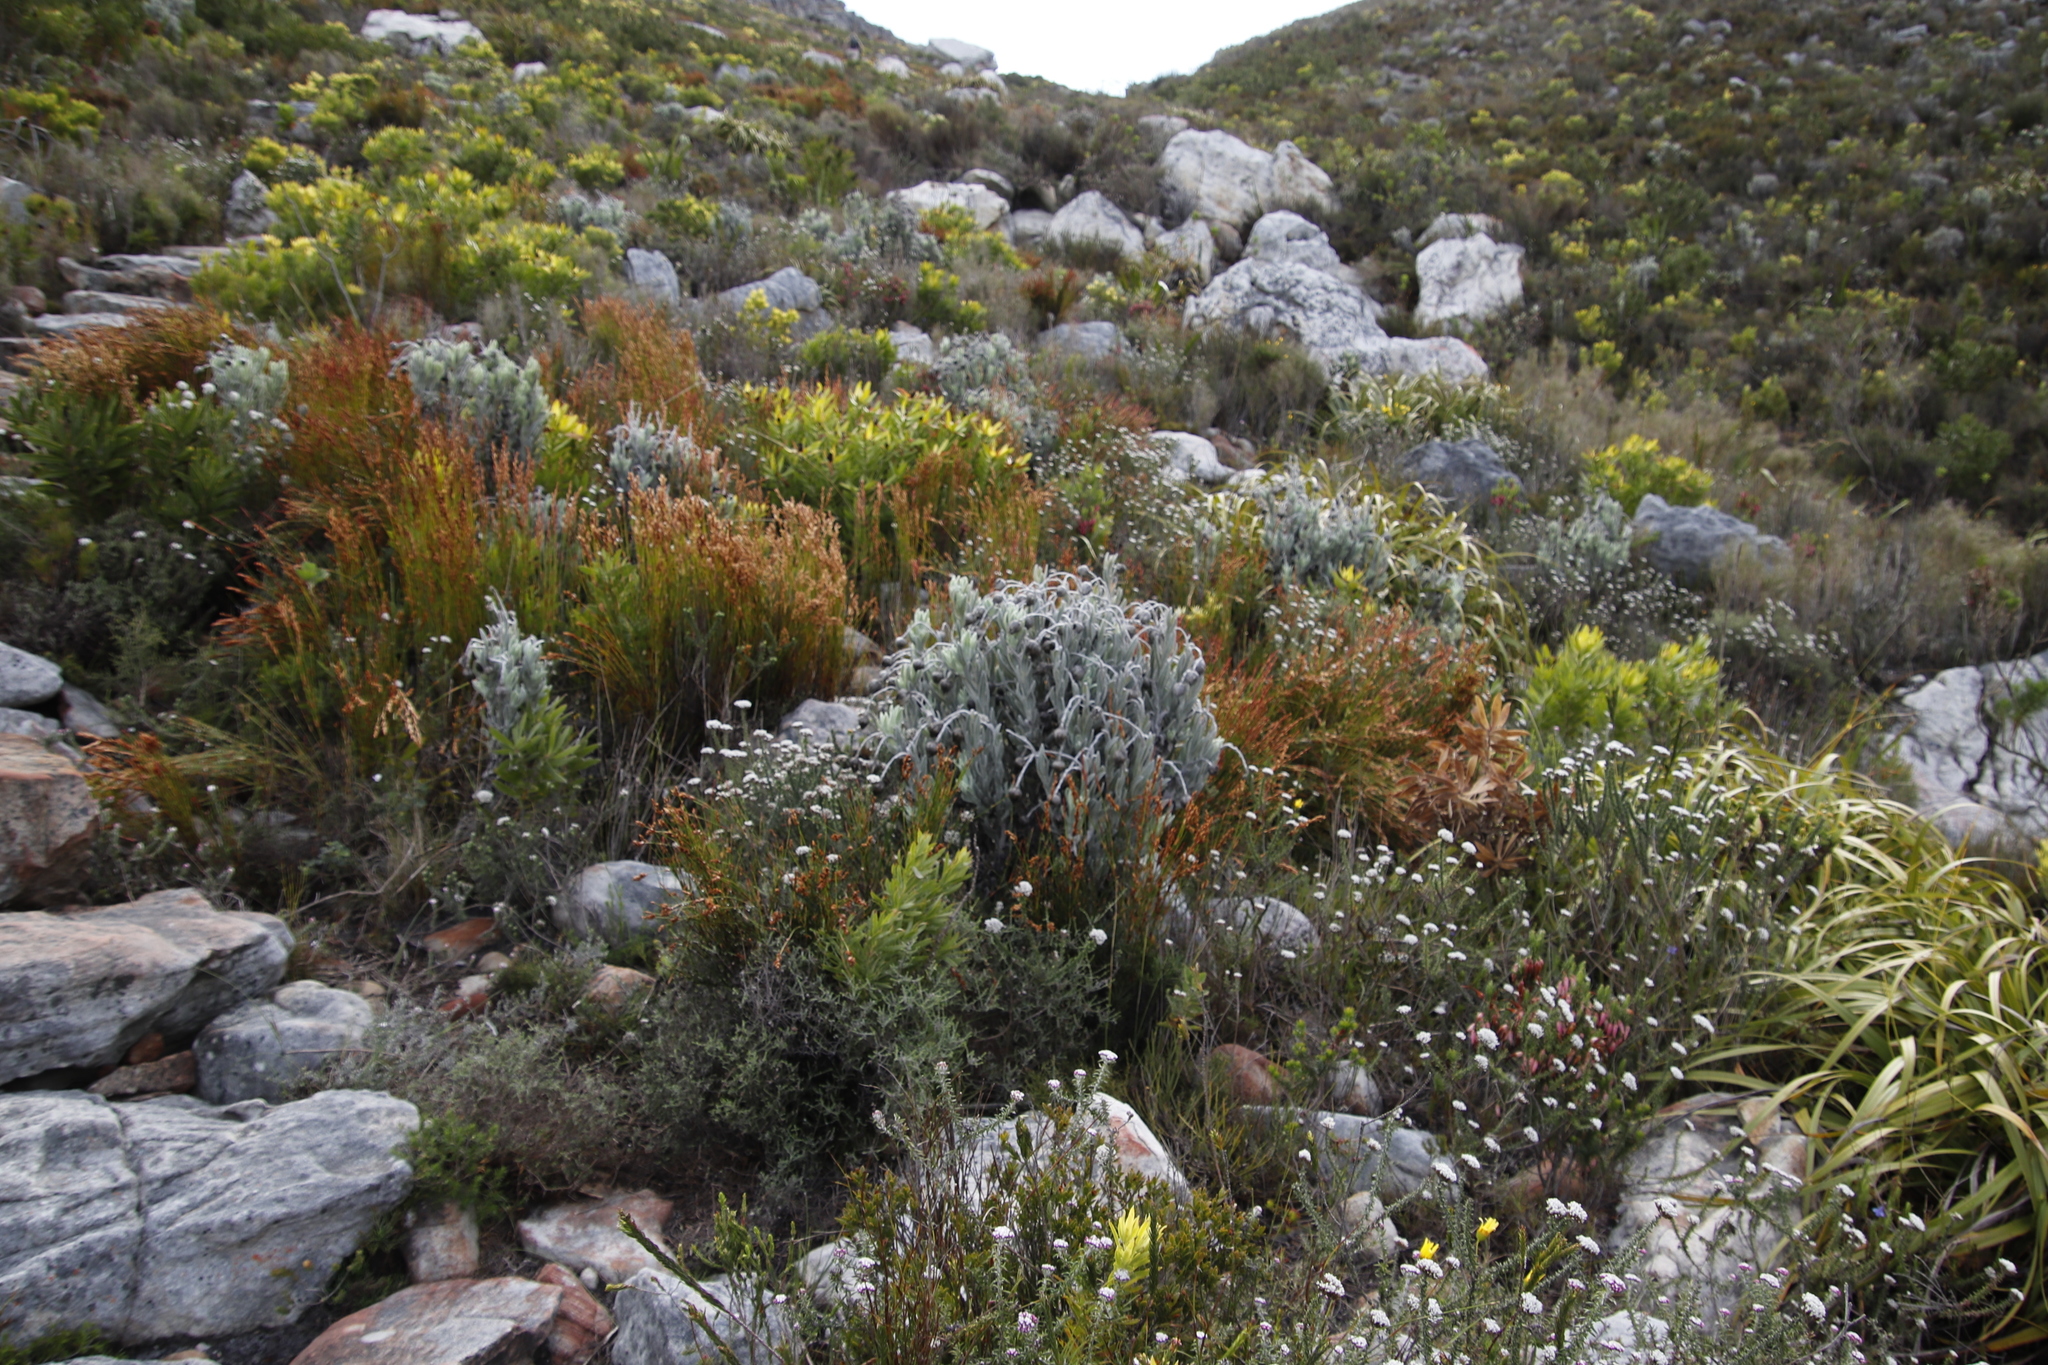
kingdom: Plantae
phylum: Tracheophyta
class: Magnoliopsida
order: Asterales
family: Asteraceae
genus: Syncarpha
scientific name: Syncarpha vestita
